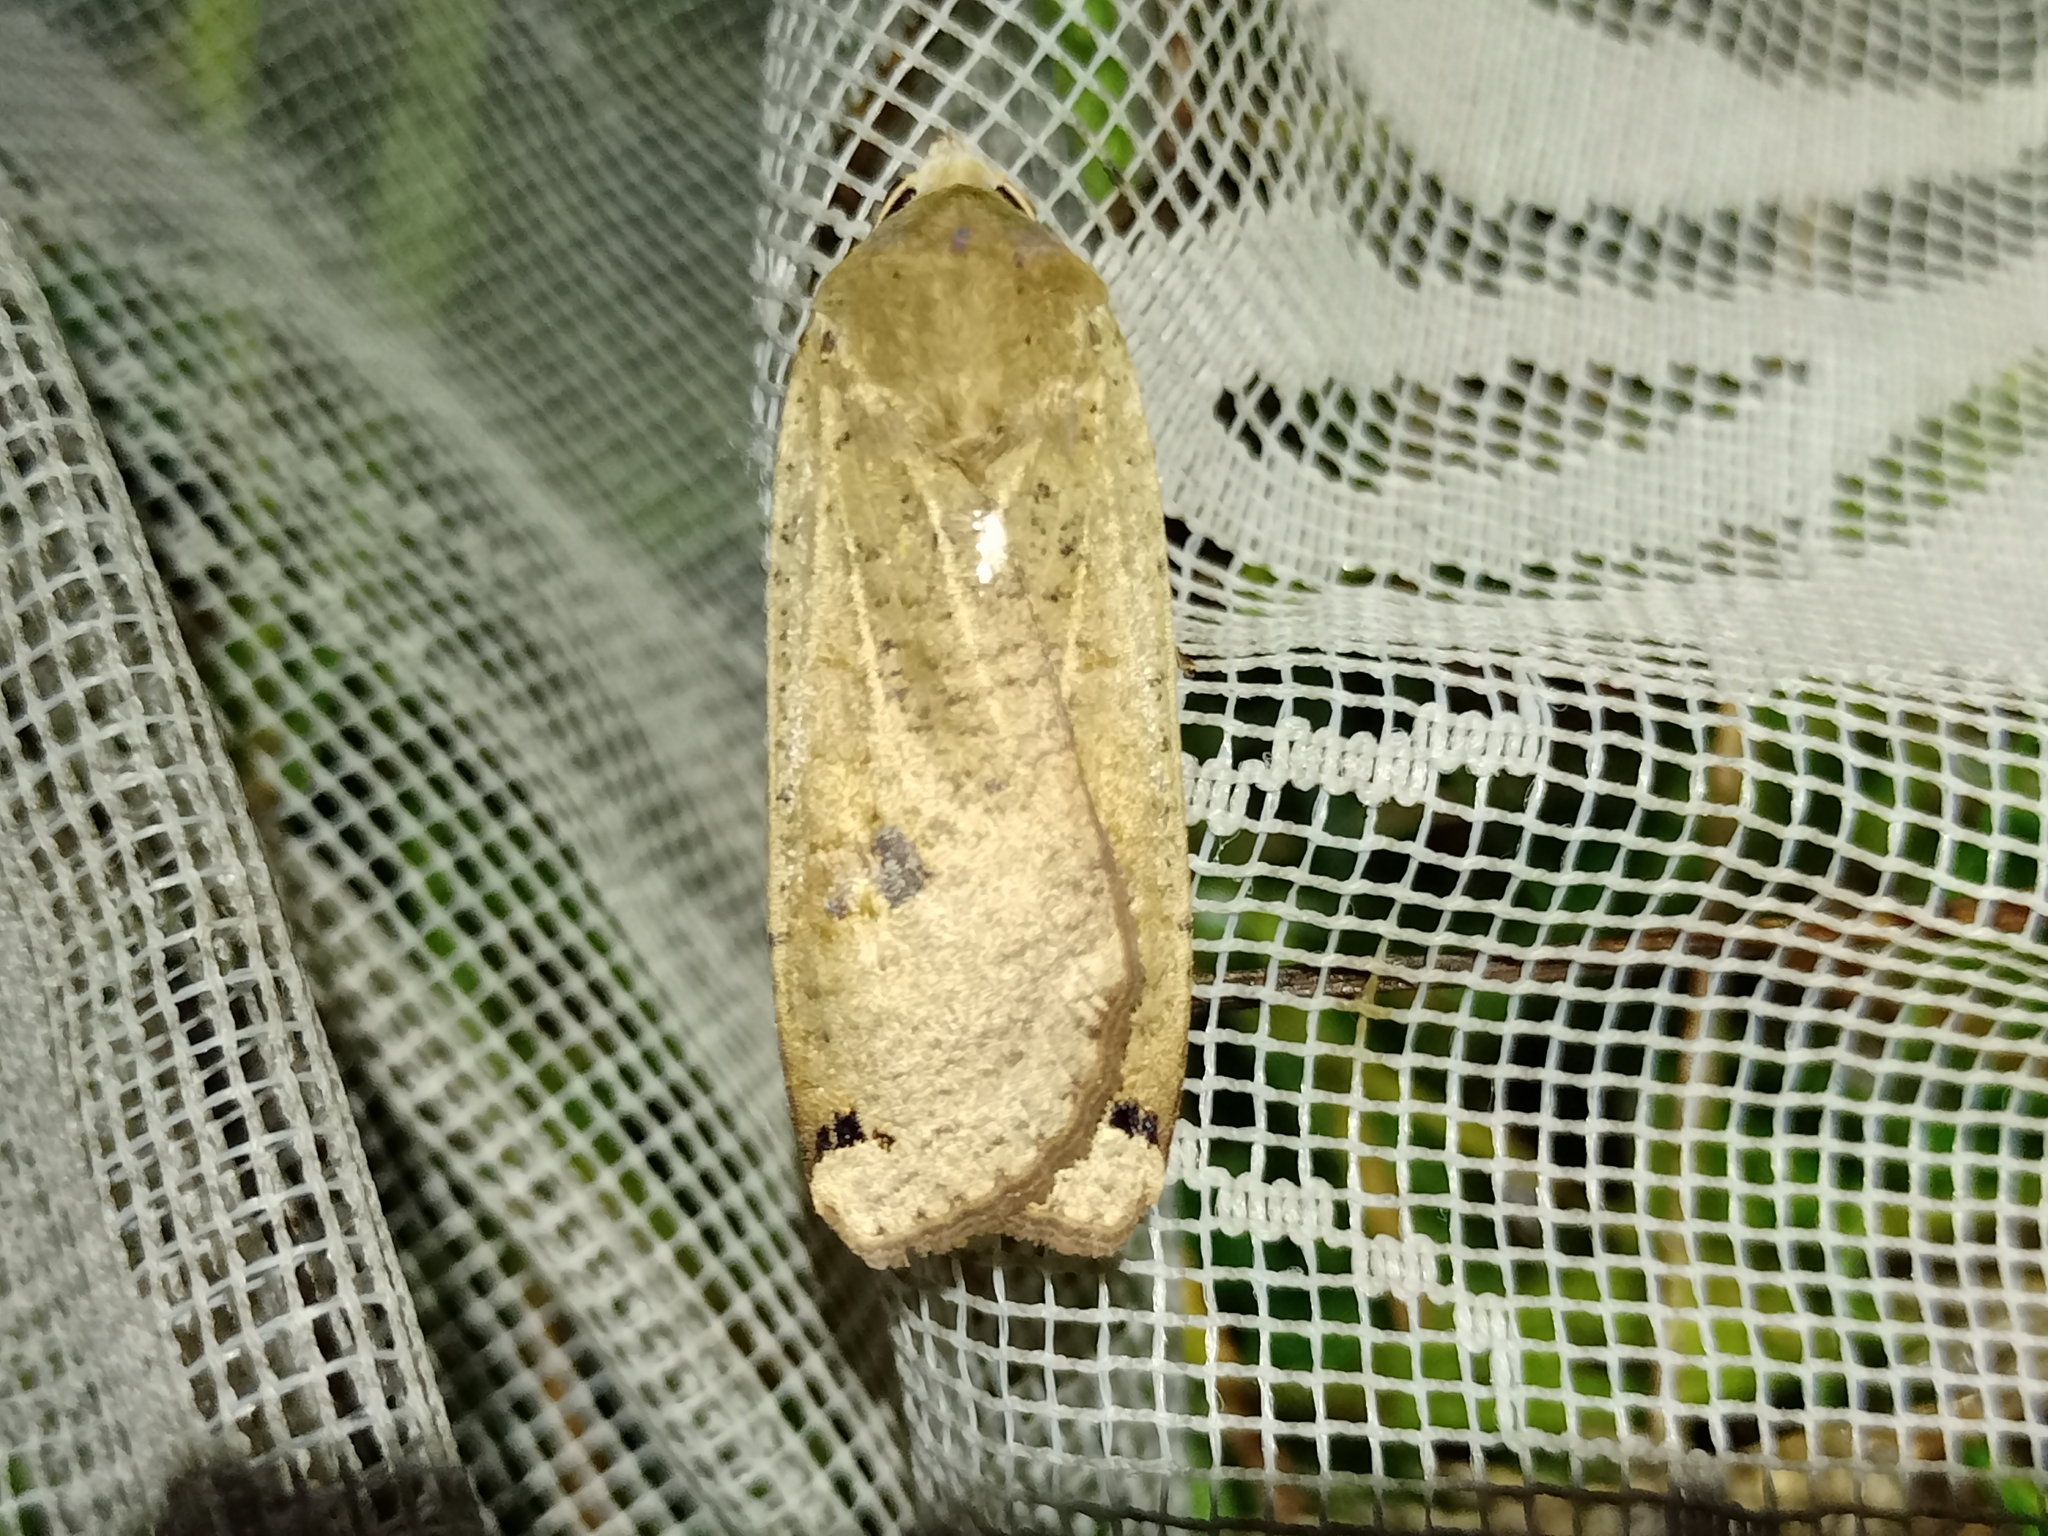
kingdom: Animalia
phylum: Arthropoda
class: Insecta
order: Lepidoptera
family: Noctuidae
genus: Noctua
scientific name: Noctua pronuba
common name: Large yellow underwing
